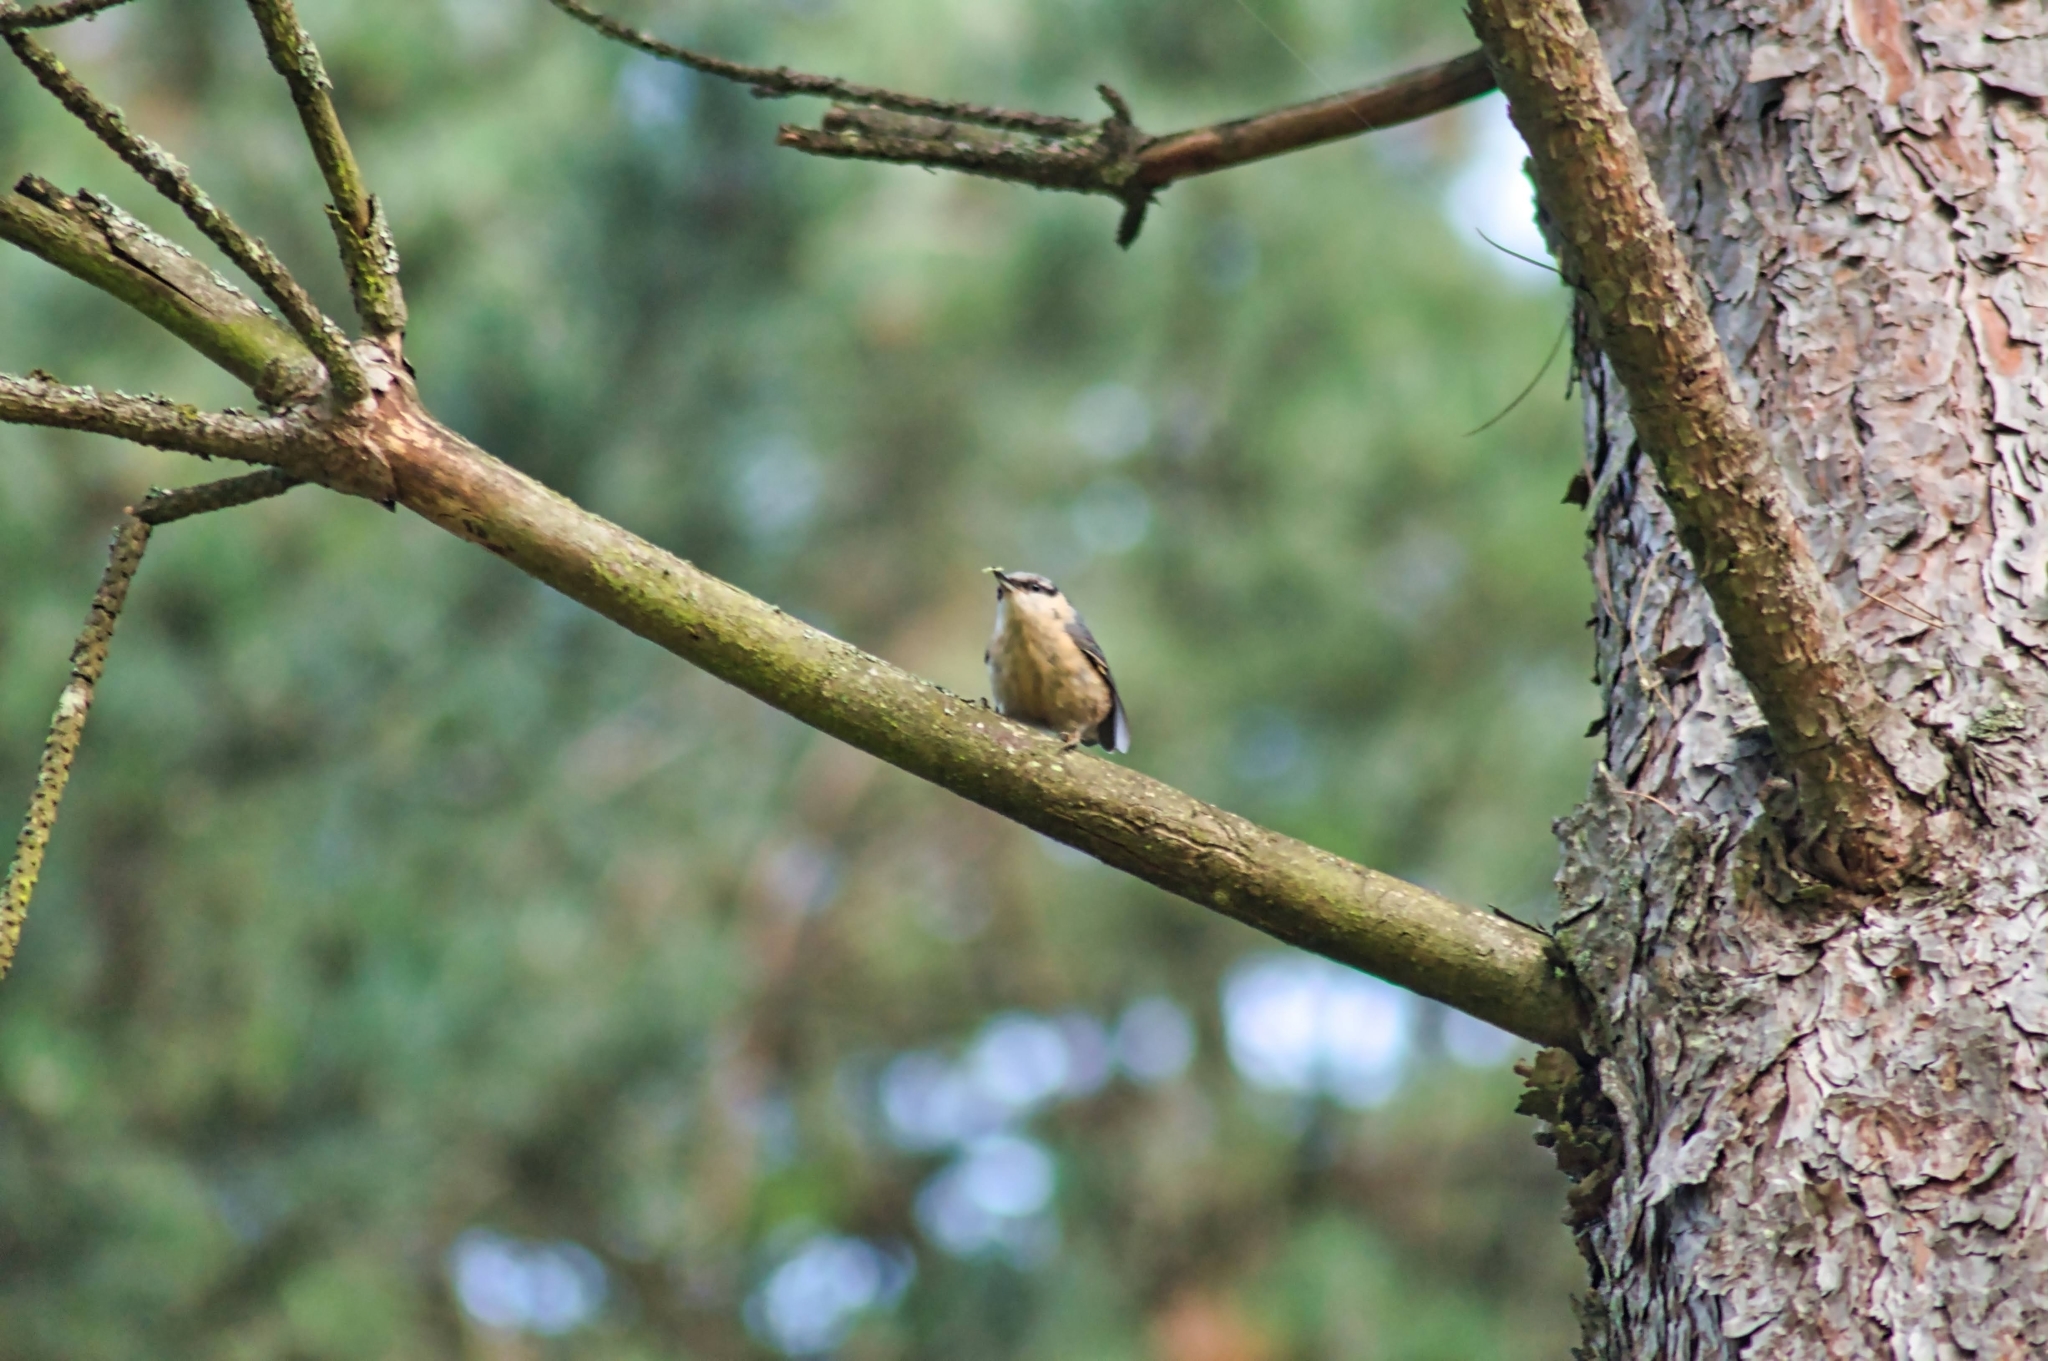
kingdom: Animalia
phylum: Chordata
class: Aves
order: Passeriformes
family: Sittidae
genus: Sitta
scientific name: Sitta europaea
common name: Eurasian nuthatch
